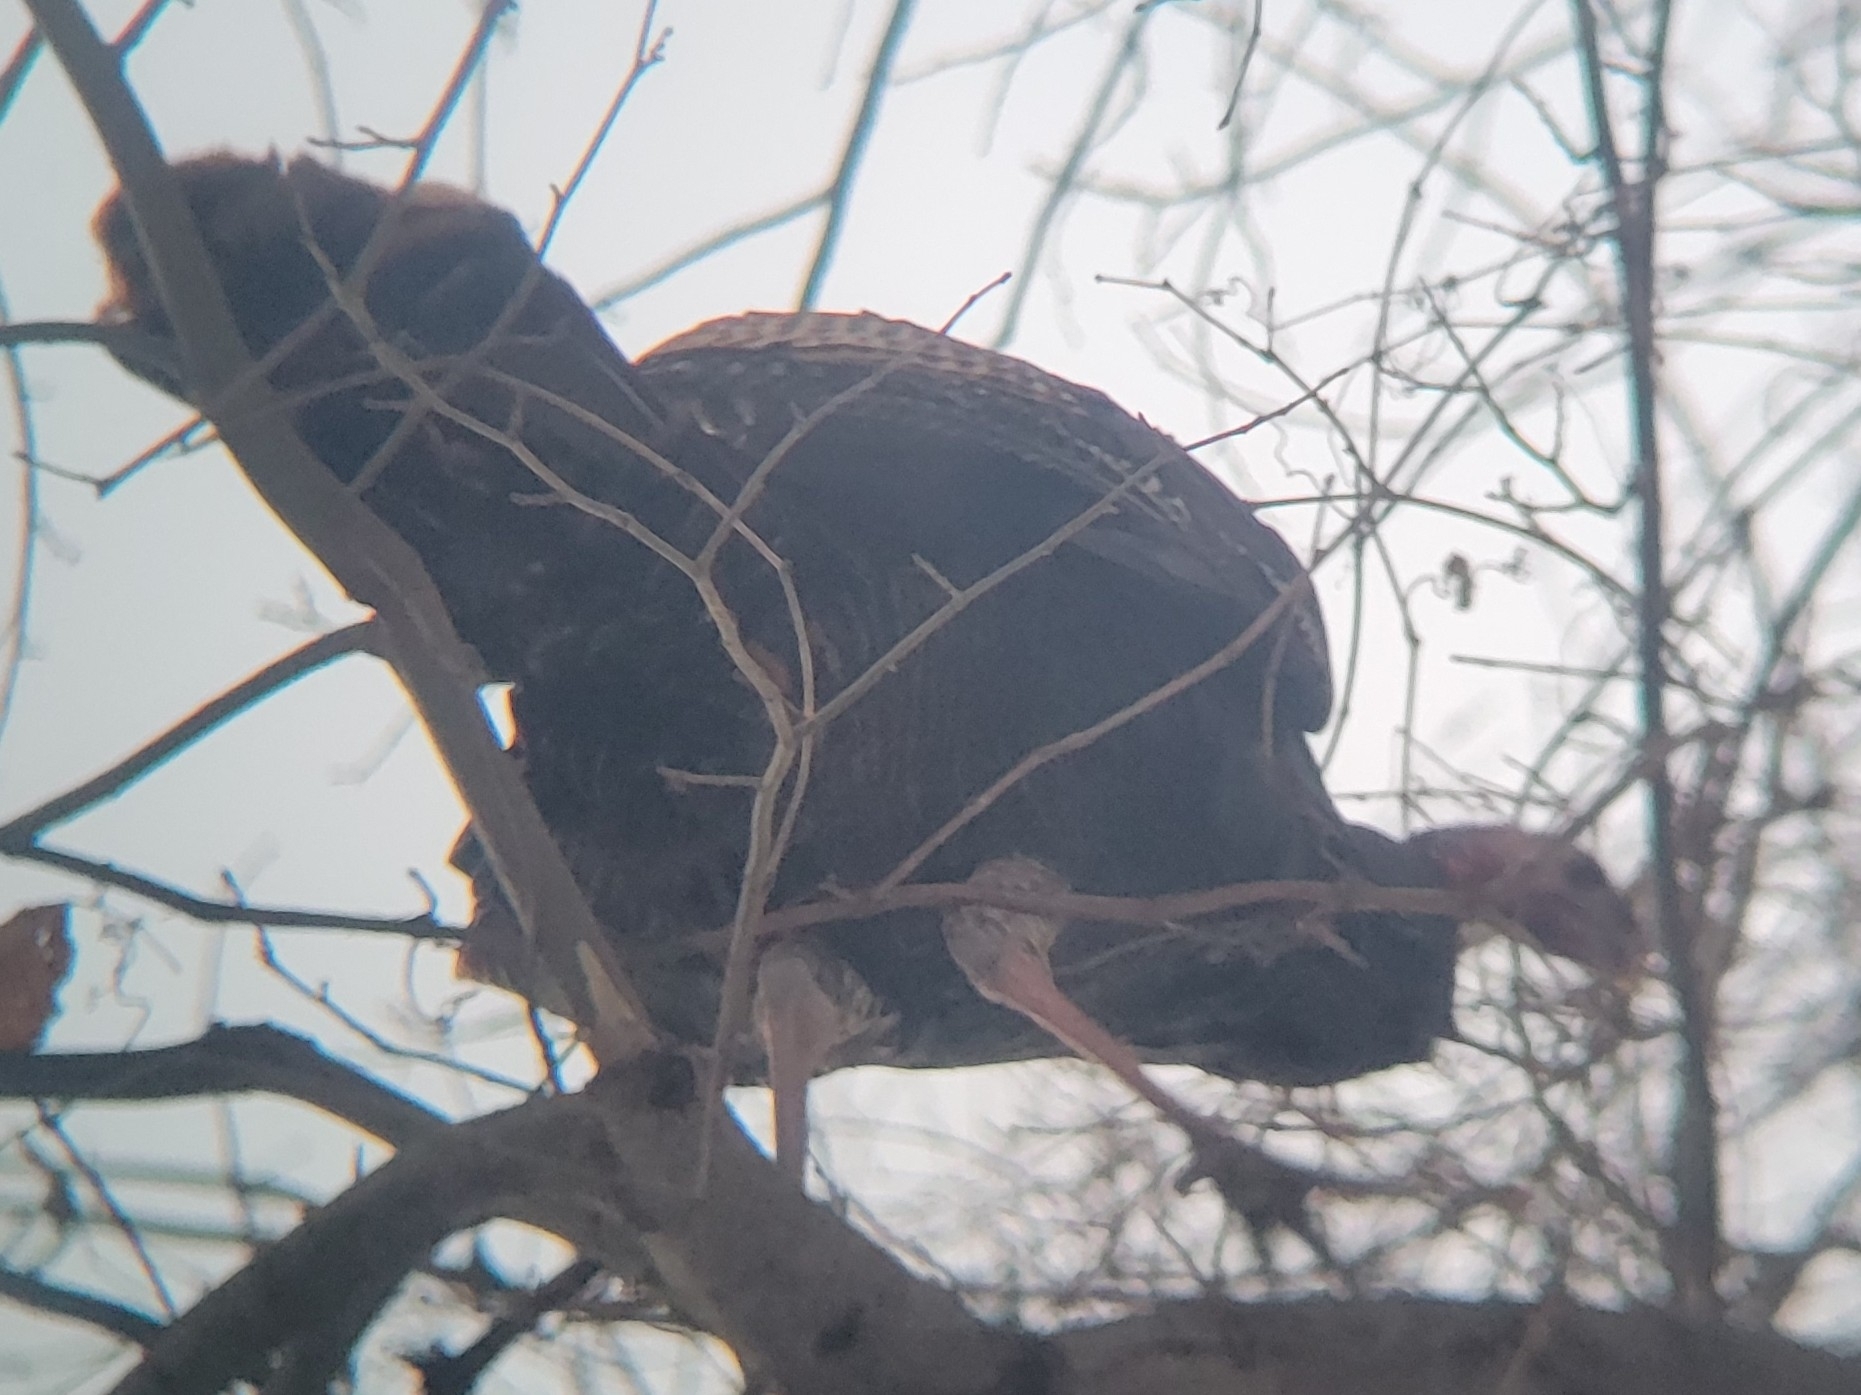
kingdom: Animalia
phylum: Chordata
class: Aves
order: Galliformes
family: Phasianidae
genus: Meleagris
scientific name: Meleagris gallopavo
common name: Wild turkey
